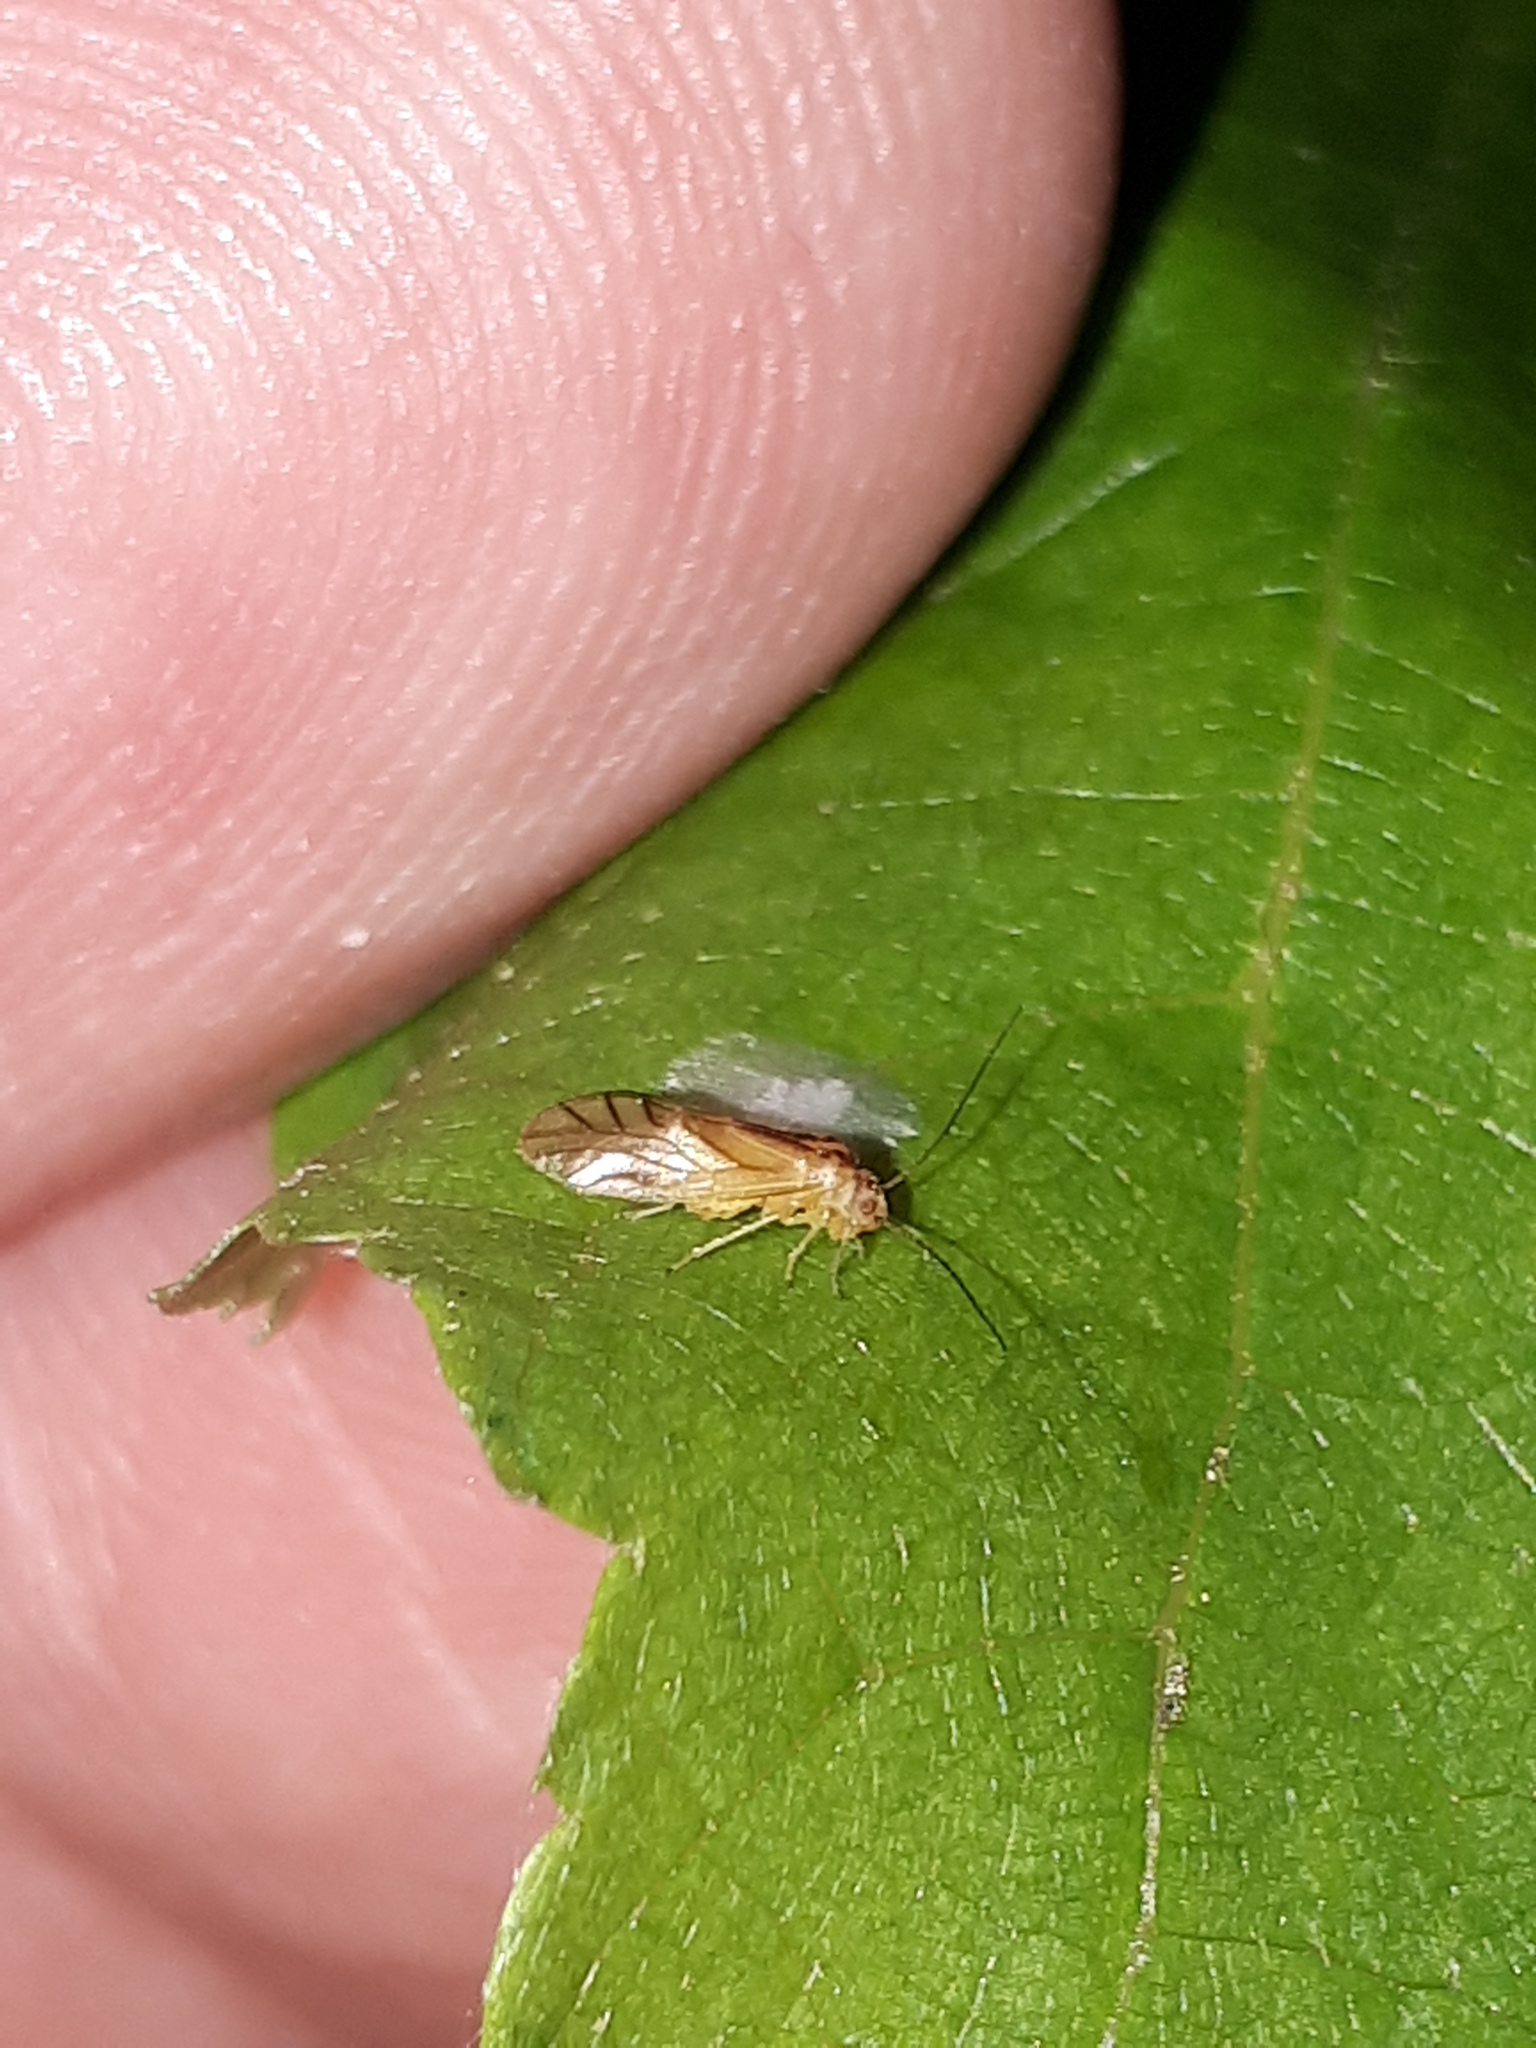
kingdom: Animalia
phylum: Arthropoda
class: Insecta
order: Psocodea
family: Caeciliusidae
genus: Valenzuela
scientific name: Valenzuela flavidus
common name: Yellow barklouse
